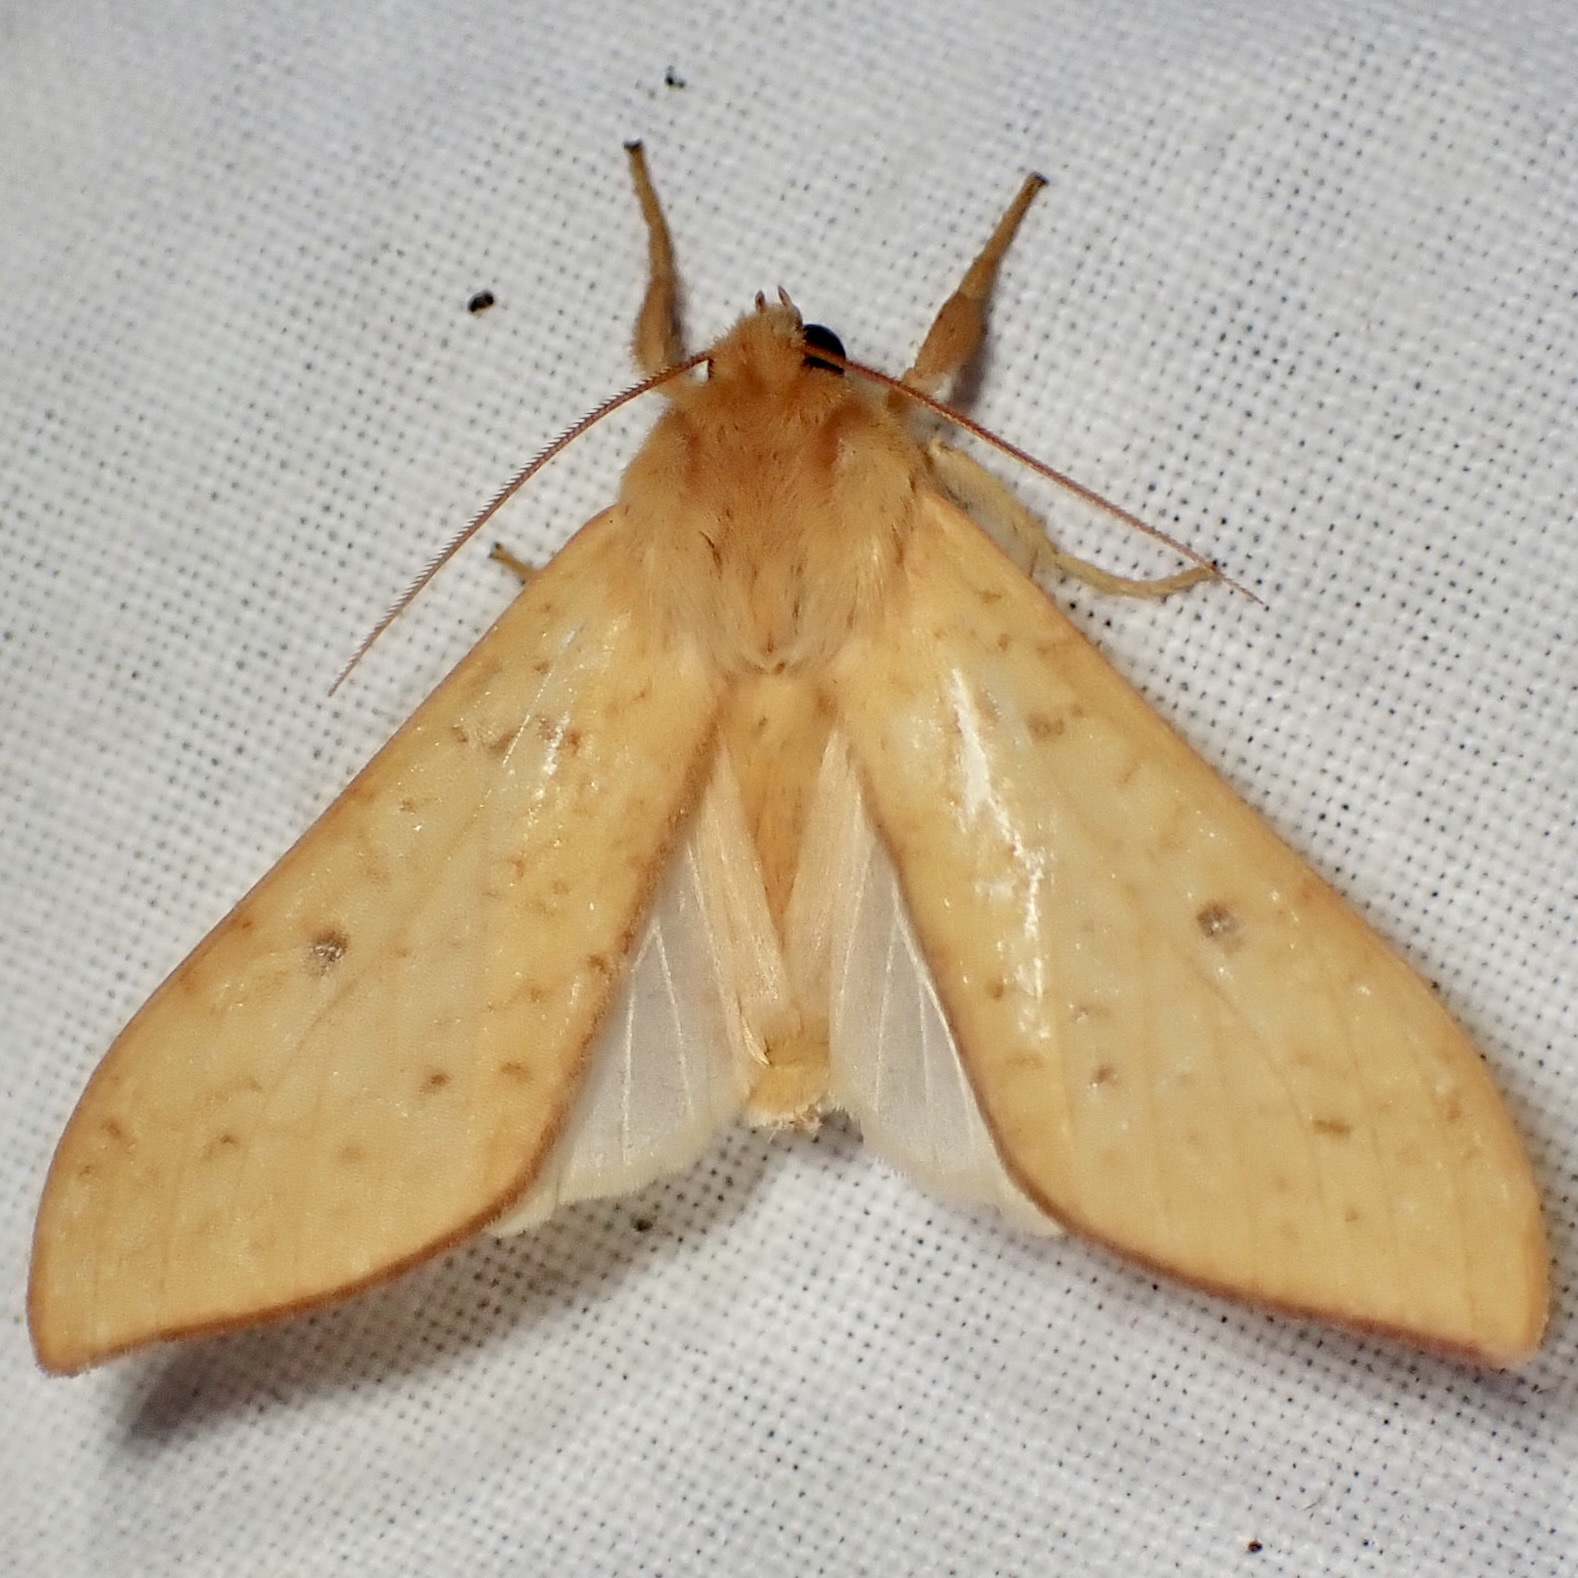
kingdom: Animalia
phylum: Arthropoda
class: Insecta
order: Lepidoptera
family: Erebidae
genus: Lophocampa
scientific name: Lophocampa pura
